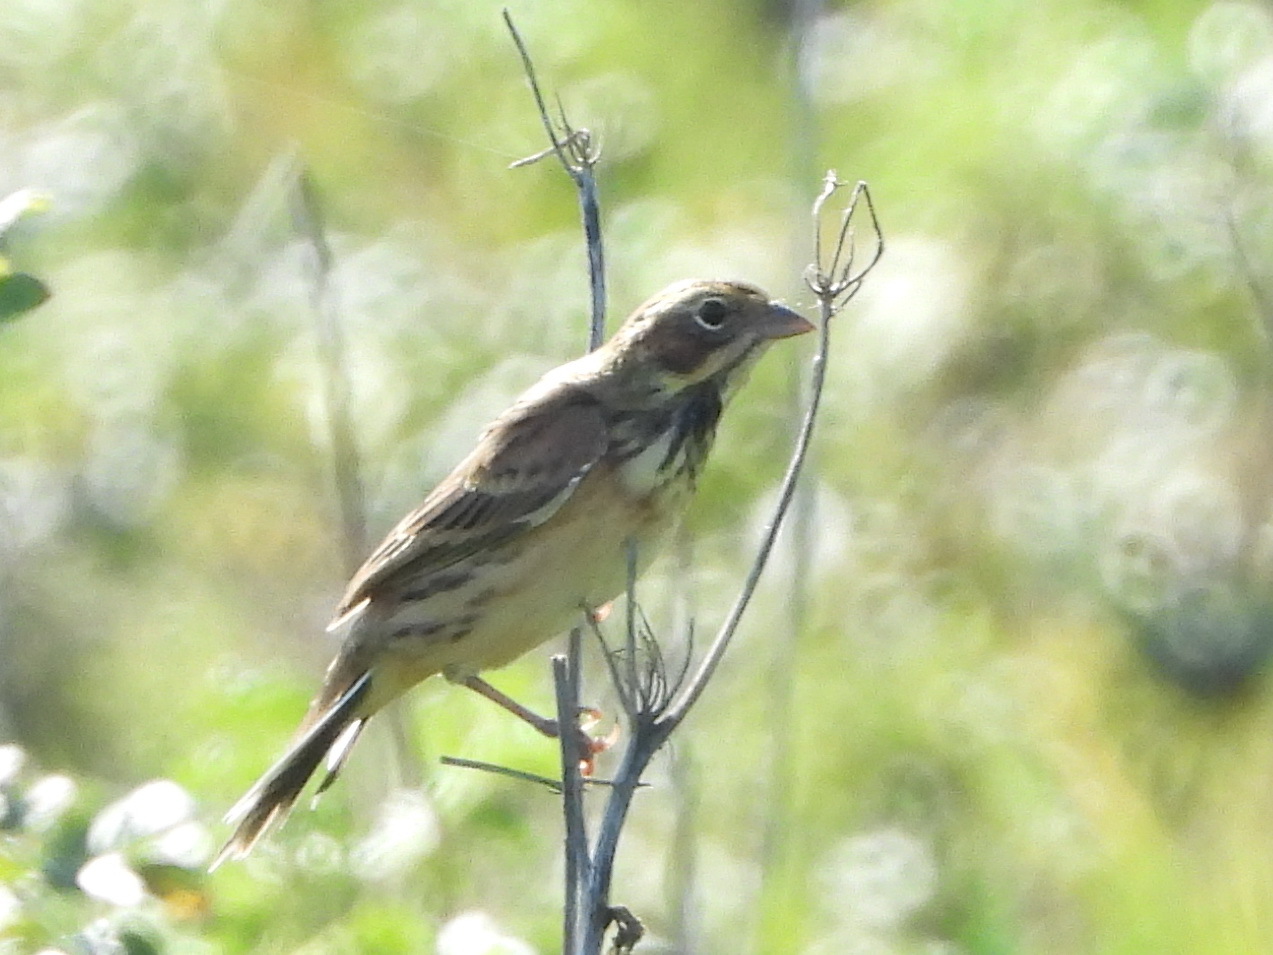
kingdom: Animalia
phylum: Chordata
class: Aves
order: Passeriformes
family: Emberizidae
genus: Emberiza
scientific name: Emberiza fucata
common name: Chestnut-eared bunting
